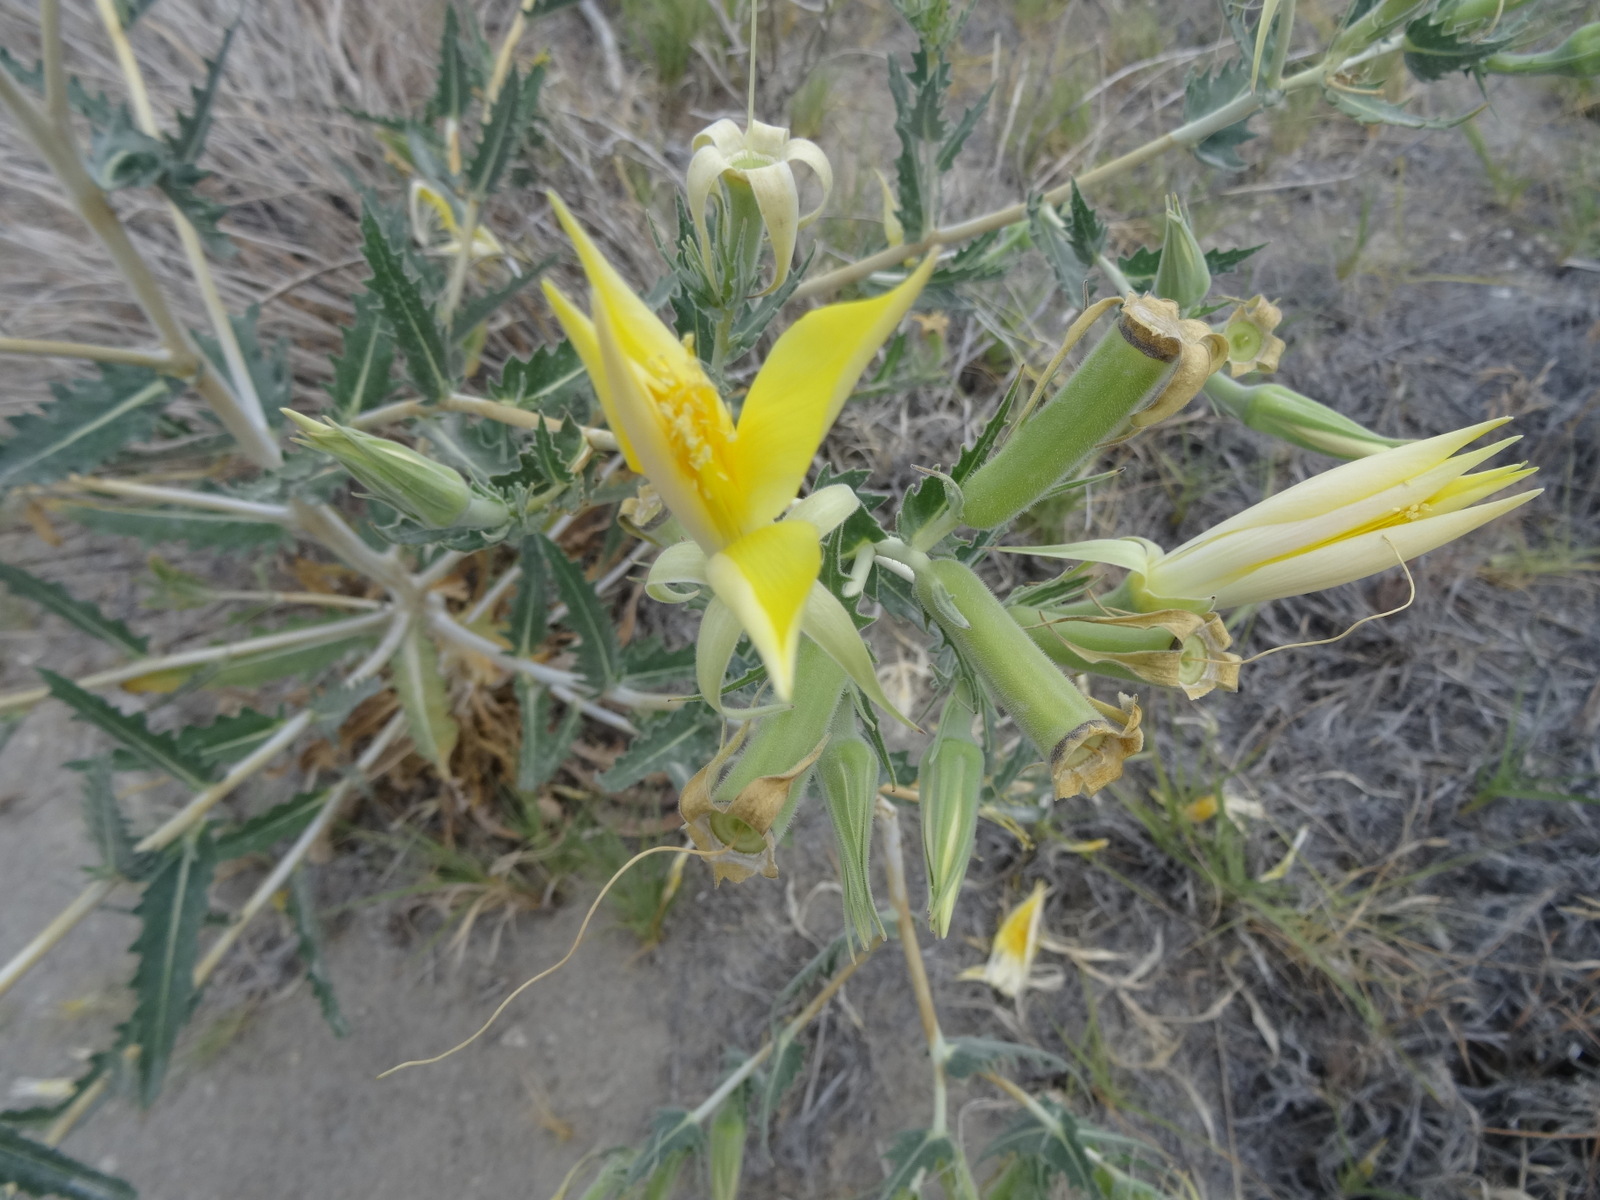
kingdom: Plantae
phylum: Tracheophyta
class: Magnoliopsida
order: Cornales
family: Loasaceae
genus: Mentzelia
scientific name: Mentzelia laevicaulis
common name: Smooth-stem blazingstar
